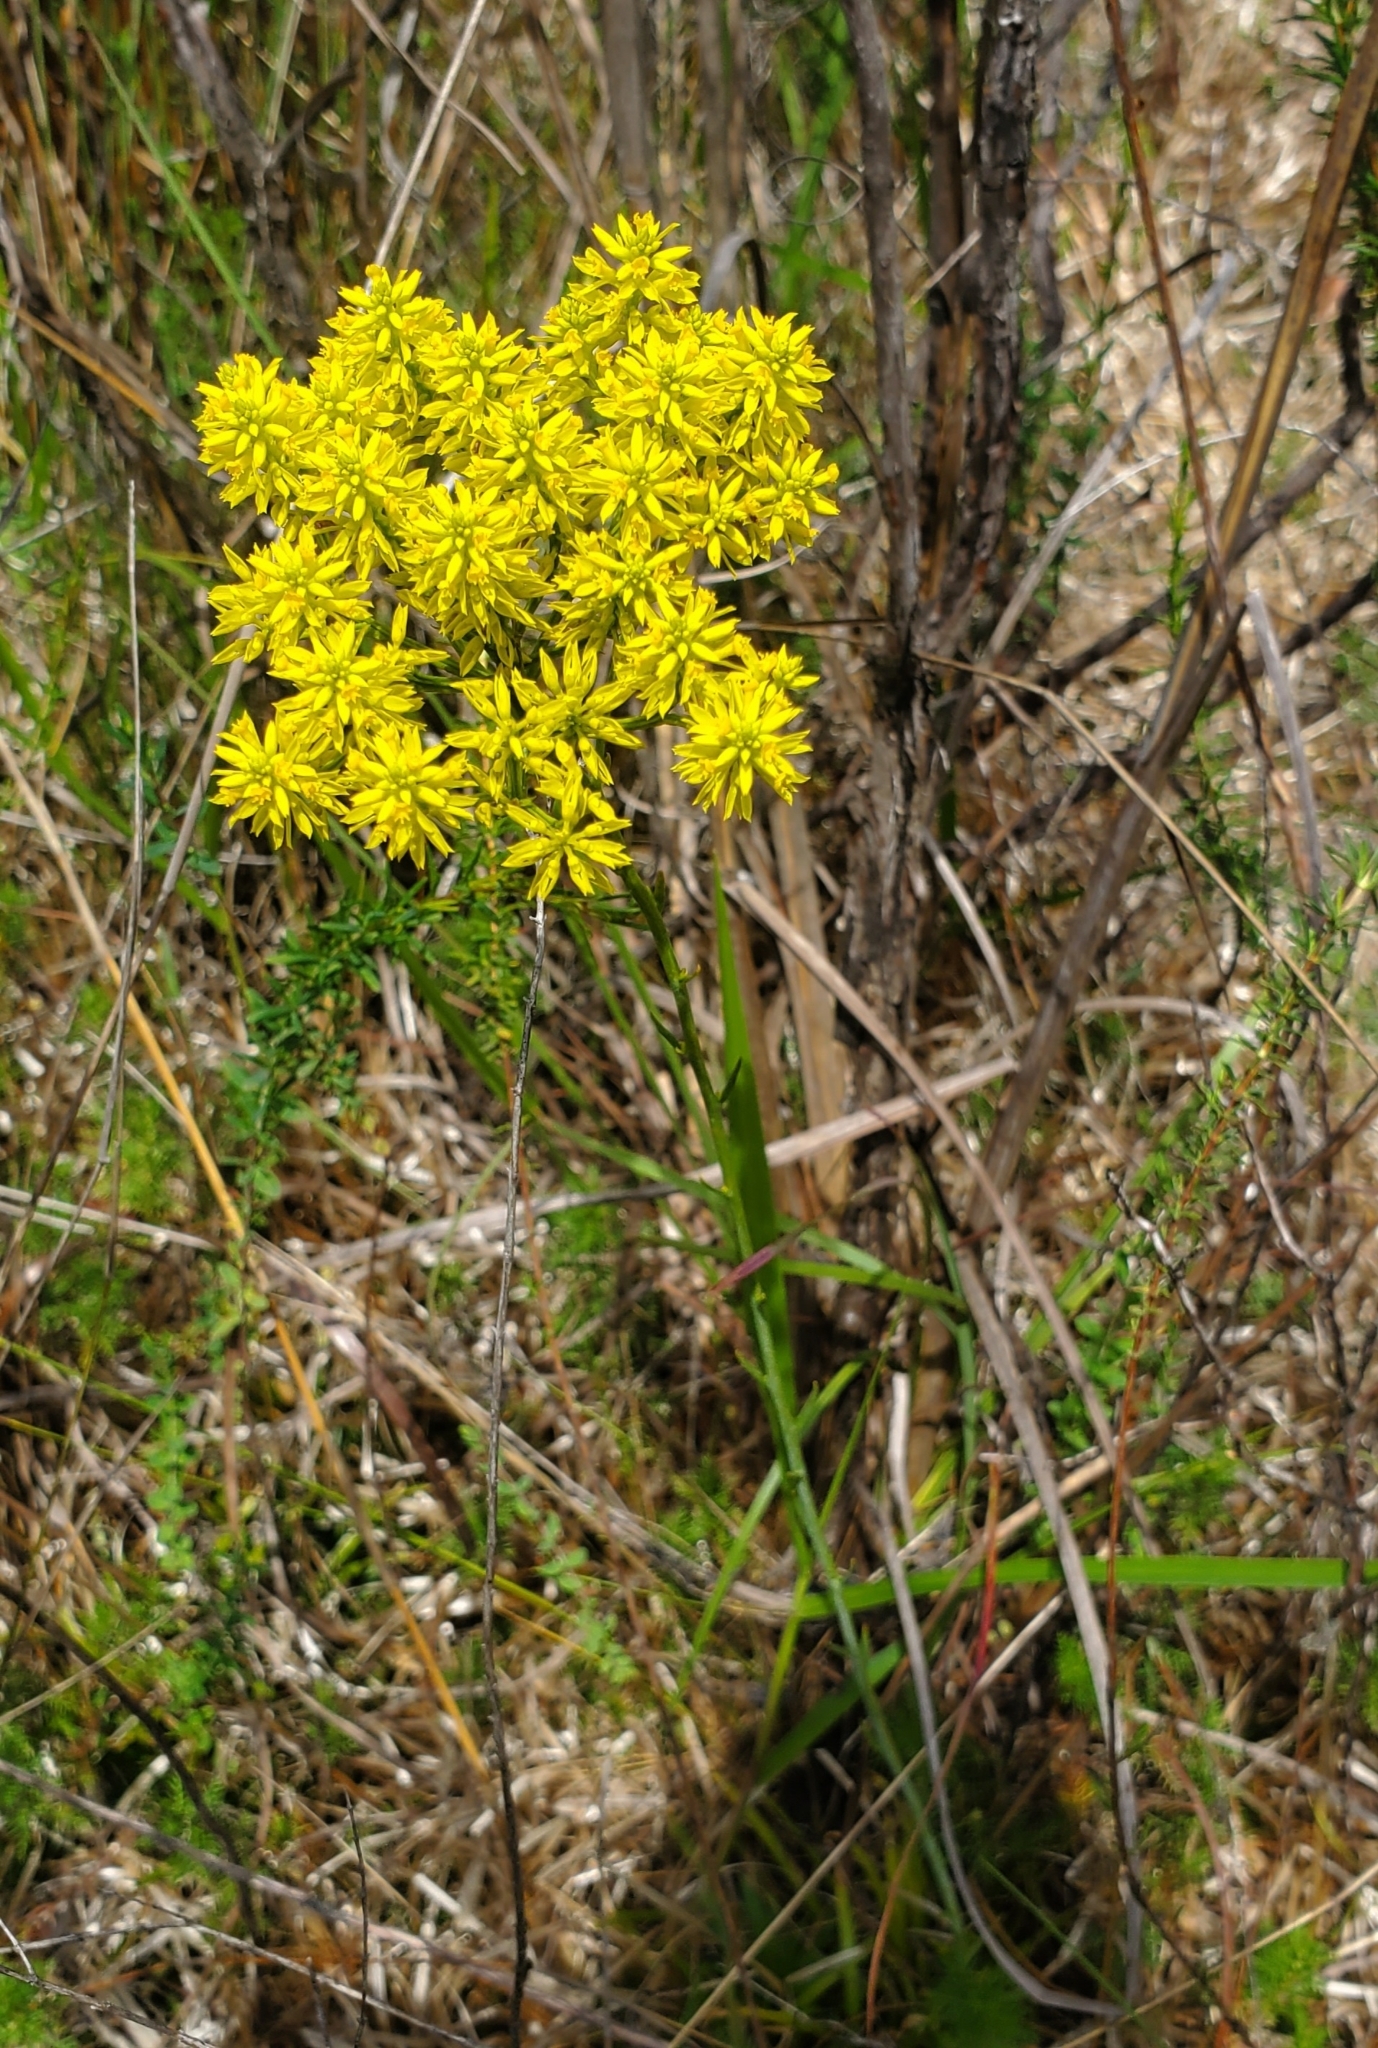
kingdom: Plantae
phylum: Tracheophyta
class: Magnoliopsida
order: Fabales
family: Polygalaceae
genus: Polygala
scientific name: Polygala cymosa
